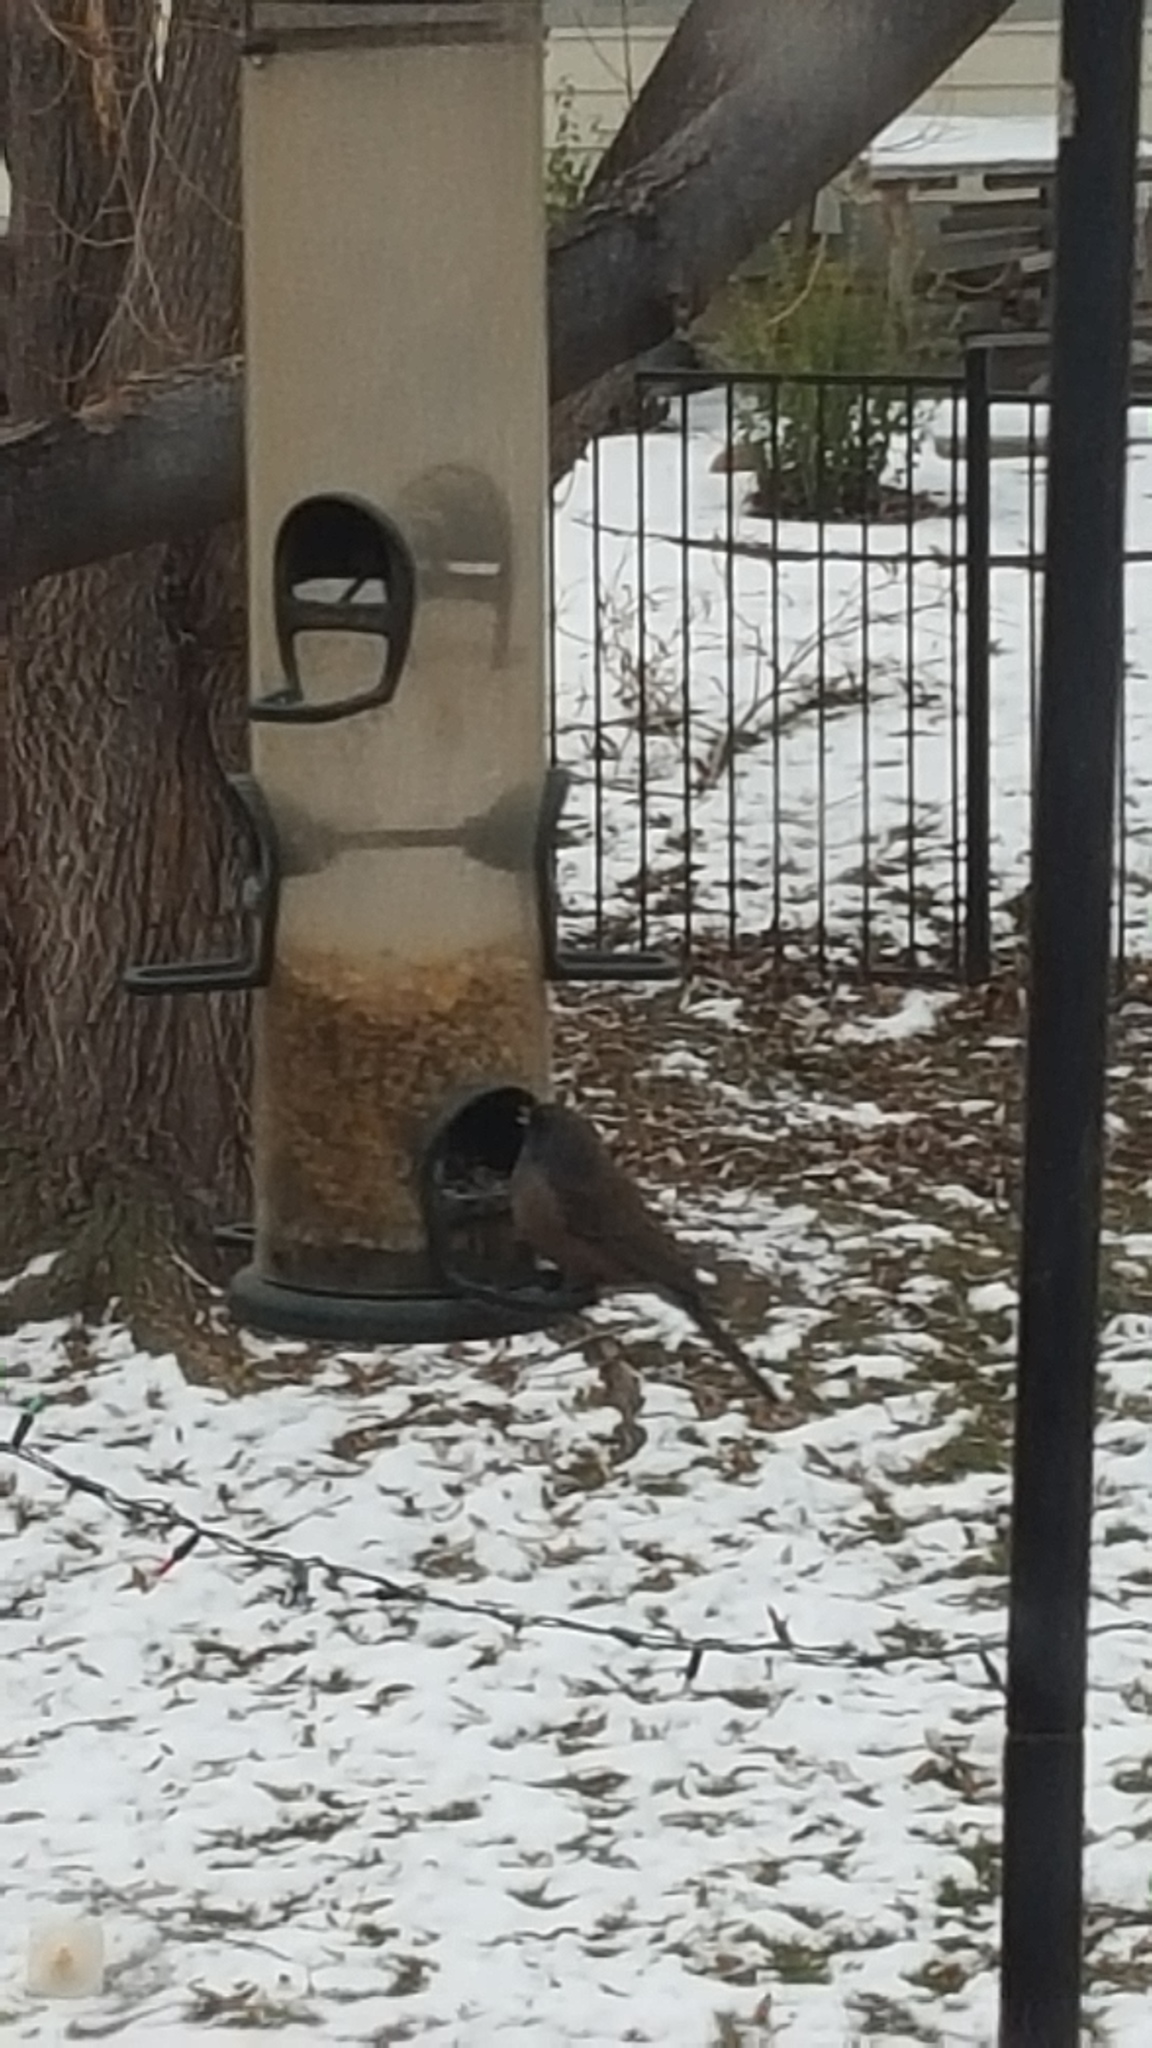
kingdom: Animalia
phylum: Chordata
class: Aves
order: Passeriformes
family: Passerellidae
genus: Junco
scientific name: Junco hyemalis
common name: Dark-eyed junco
